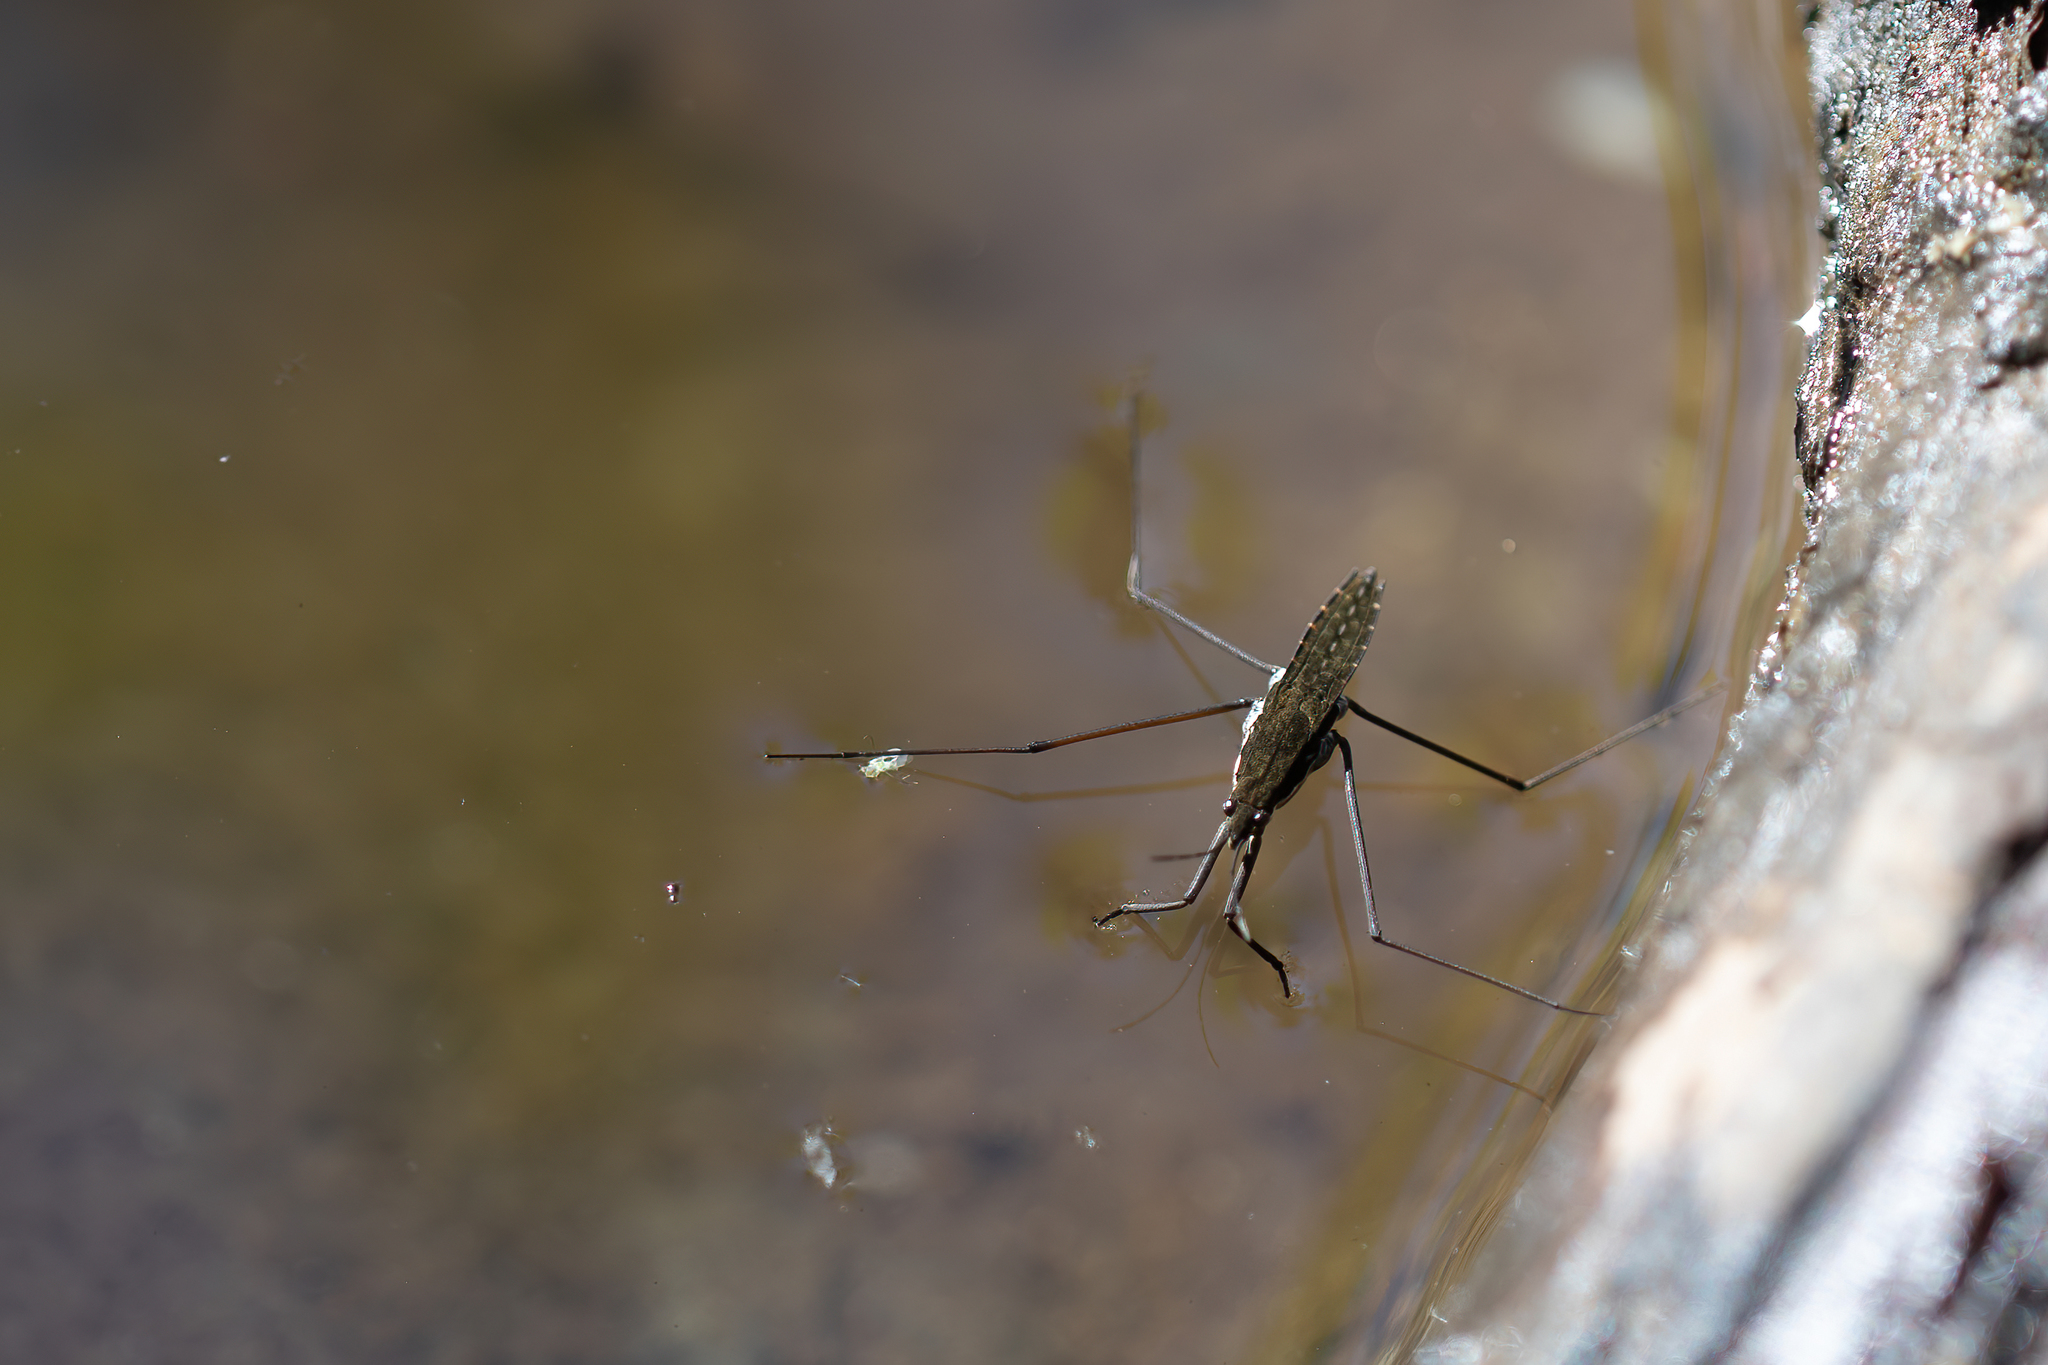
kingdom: Animalia
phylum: Arthropoda
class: Insecta
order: Hemiptera
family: Gerridae
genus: Aquarius
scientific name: Aquarius remigis
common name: Common water strider
